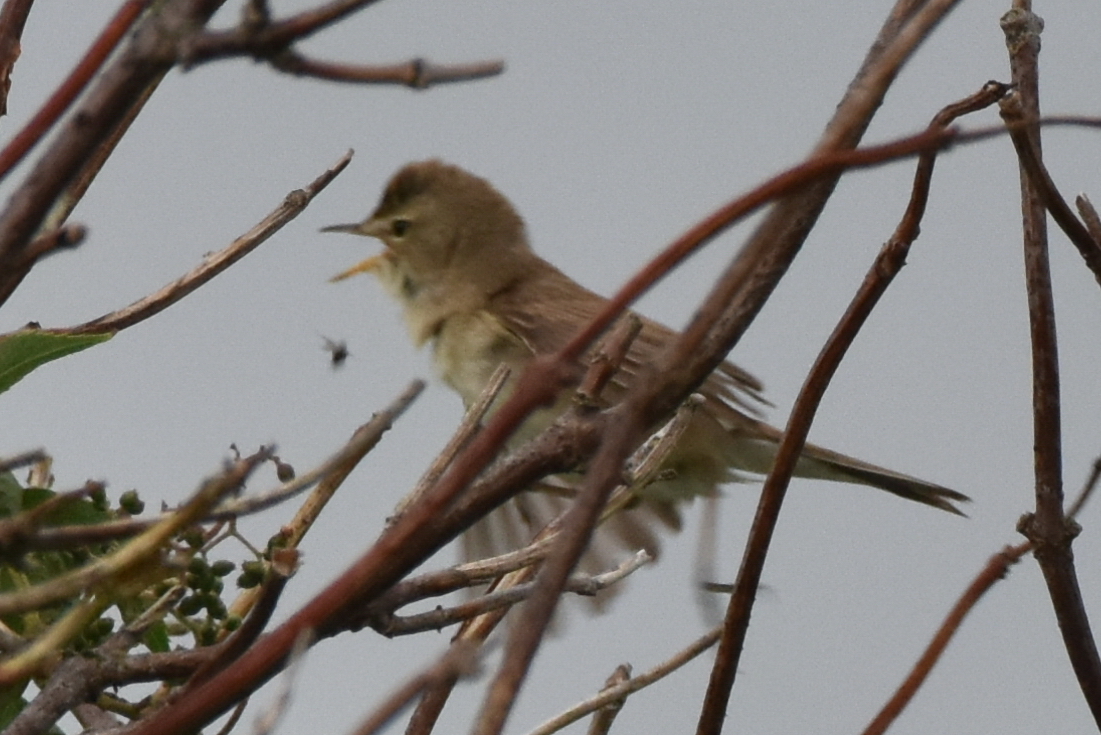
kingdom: Animalia
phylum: Chordata
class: Aves
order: Passeriformes
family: Acrocephalidae
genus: Iduna
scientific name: Iduna caligata
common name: Booted warbler
